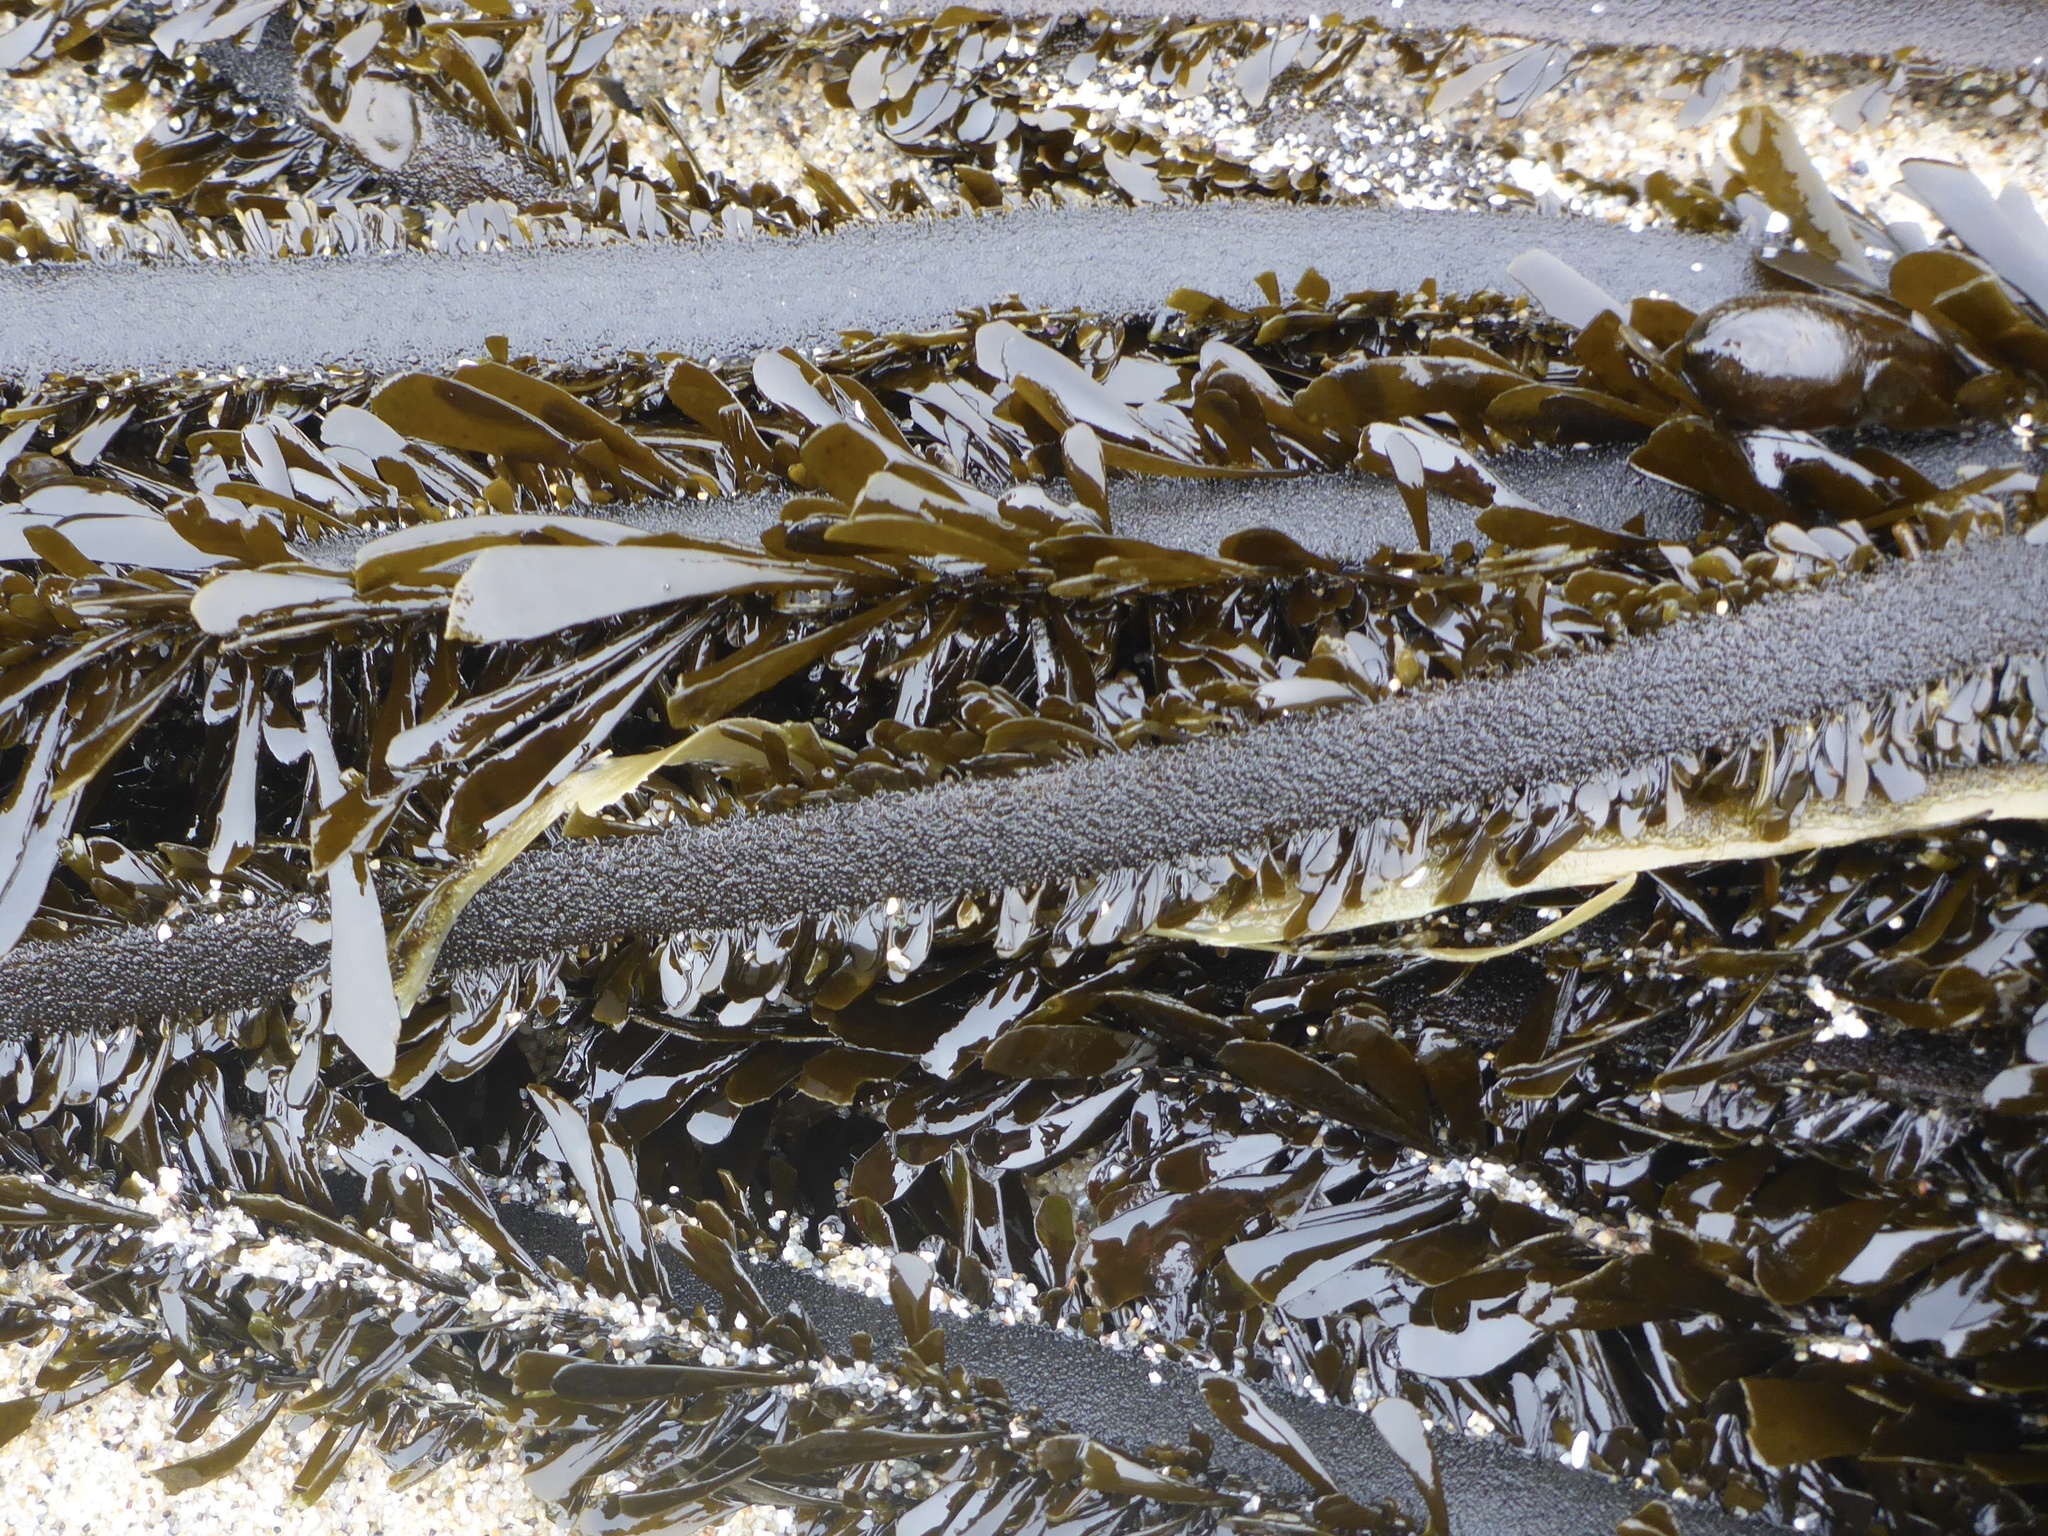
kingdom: Chromista
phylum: Ochrophyta
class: Phaeophyceae
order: Laminariales
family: Lessoniaceae
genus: Egregia
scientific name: Egregia menziesii
